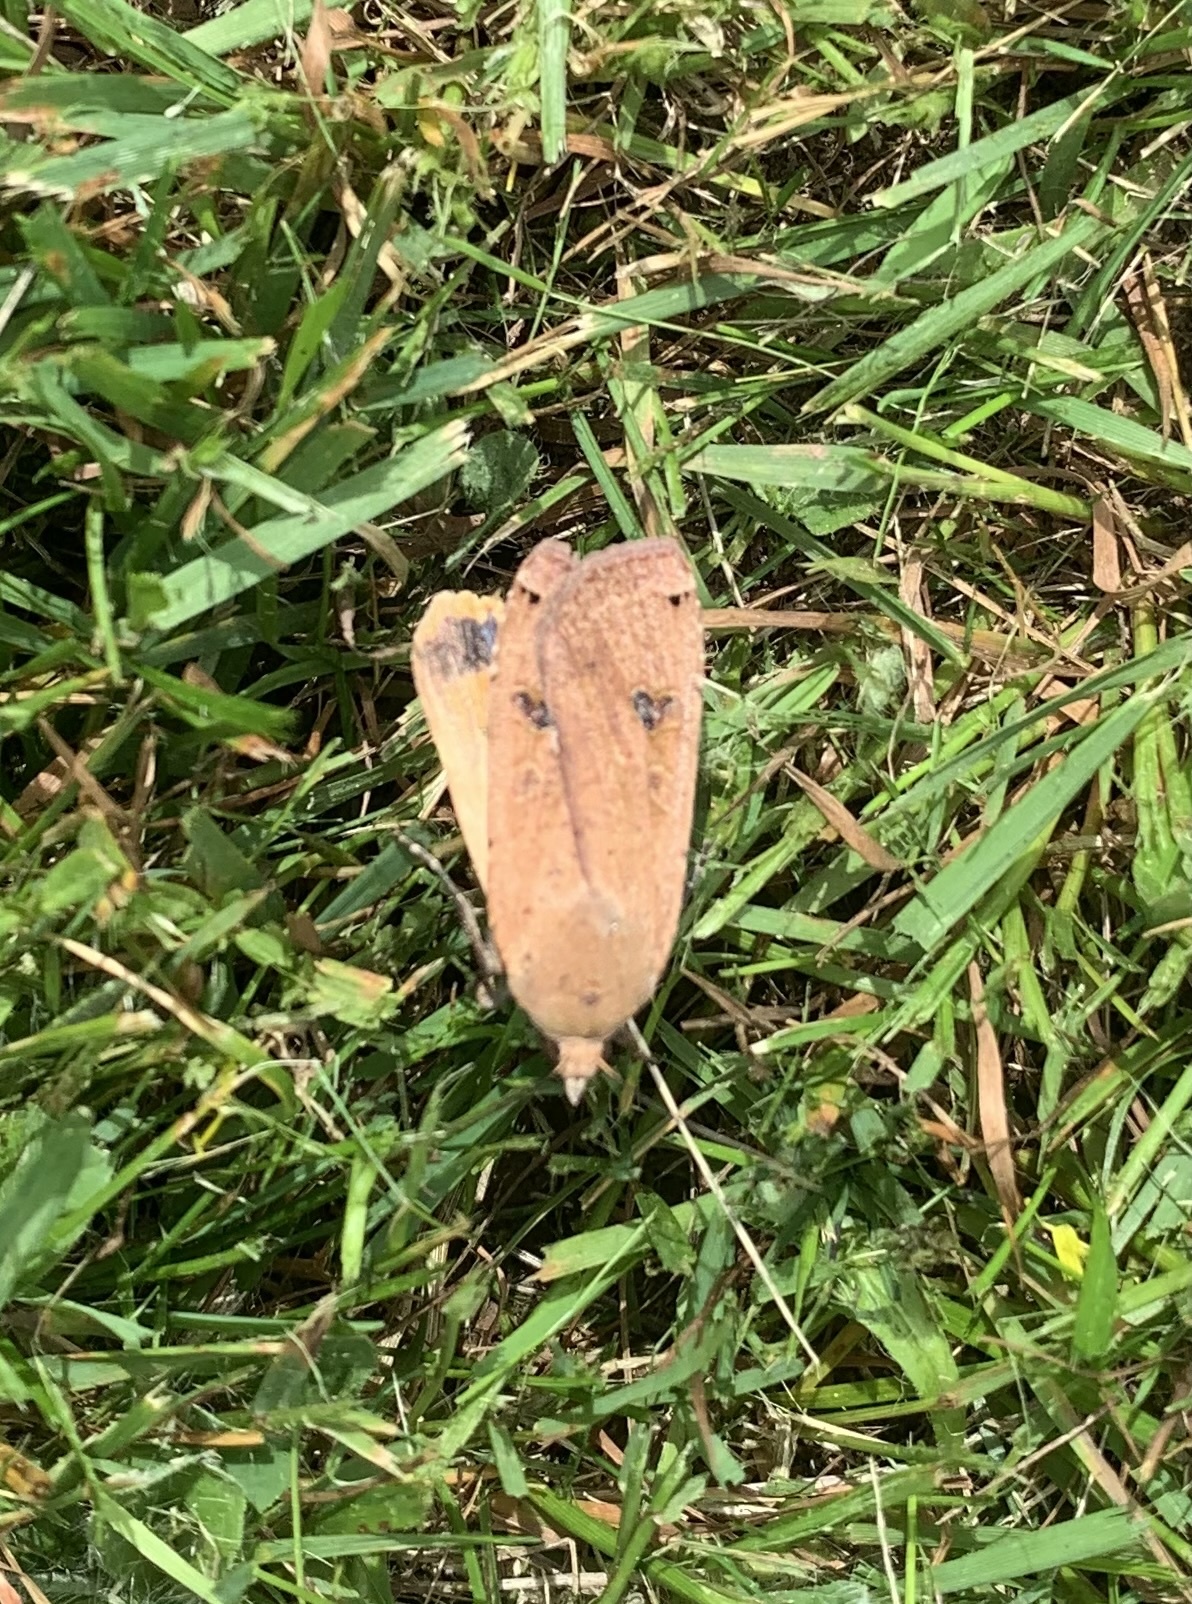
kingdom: Animalia
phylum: Arthropoda
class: Insecta
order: Lepidoptera
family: Noctuidae
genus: Noctua
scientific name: Noctua pronuba
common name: Large yellow underwing
